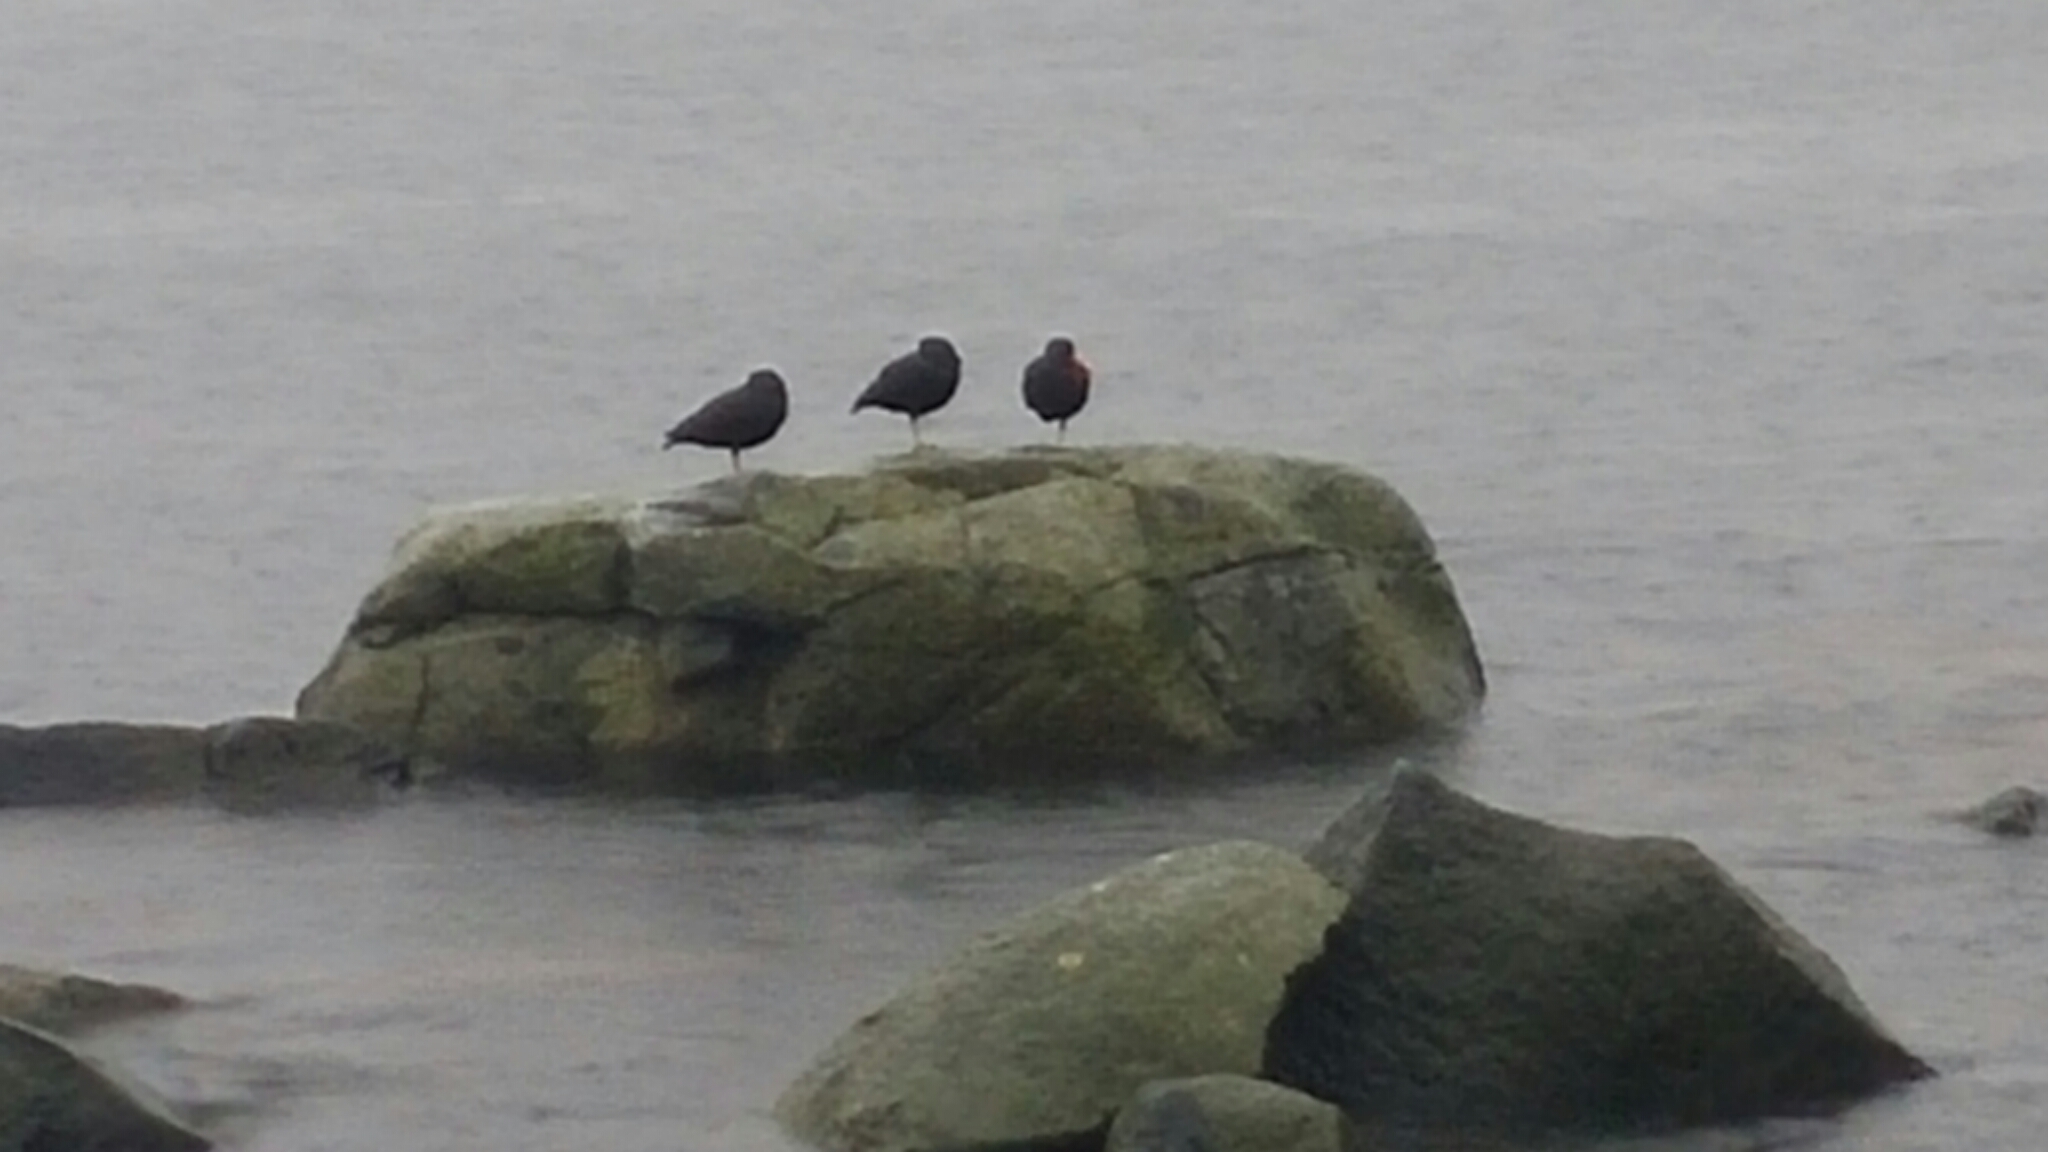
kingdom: Animalia
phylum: Chordata
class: Aves
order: Charadriiformes
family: Haematopodidae
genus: Haematopus
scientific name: Haematopus bachmani
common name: Black oystercatcher
